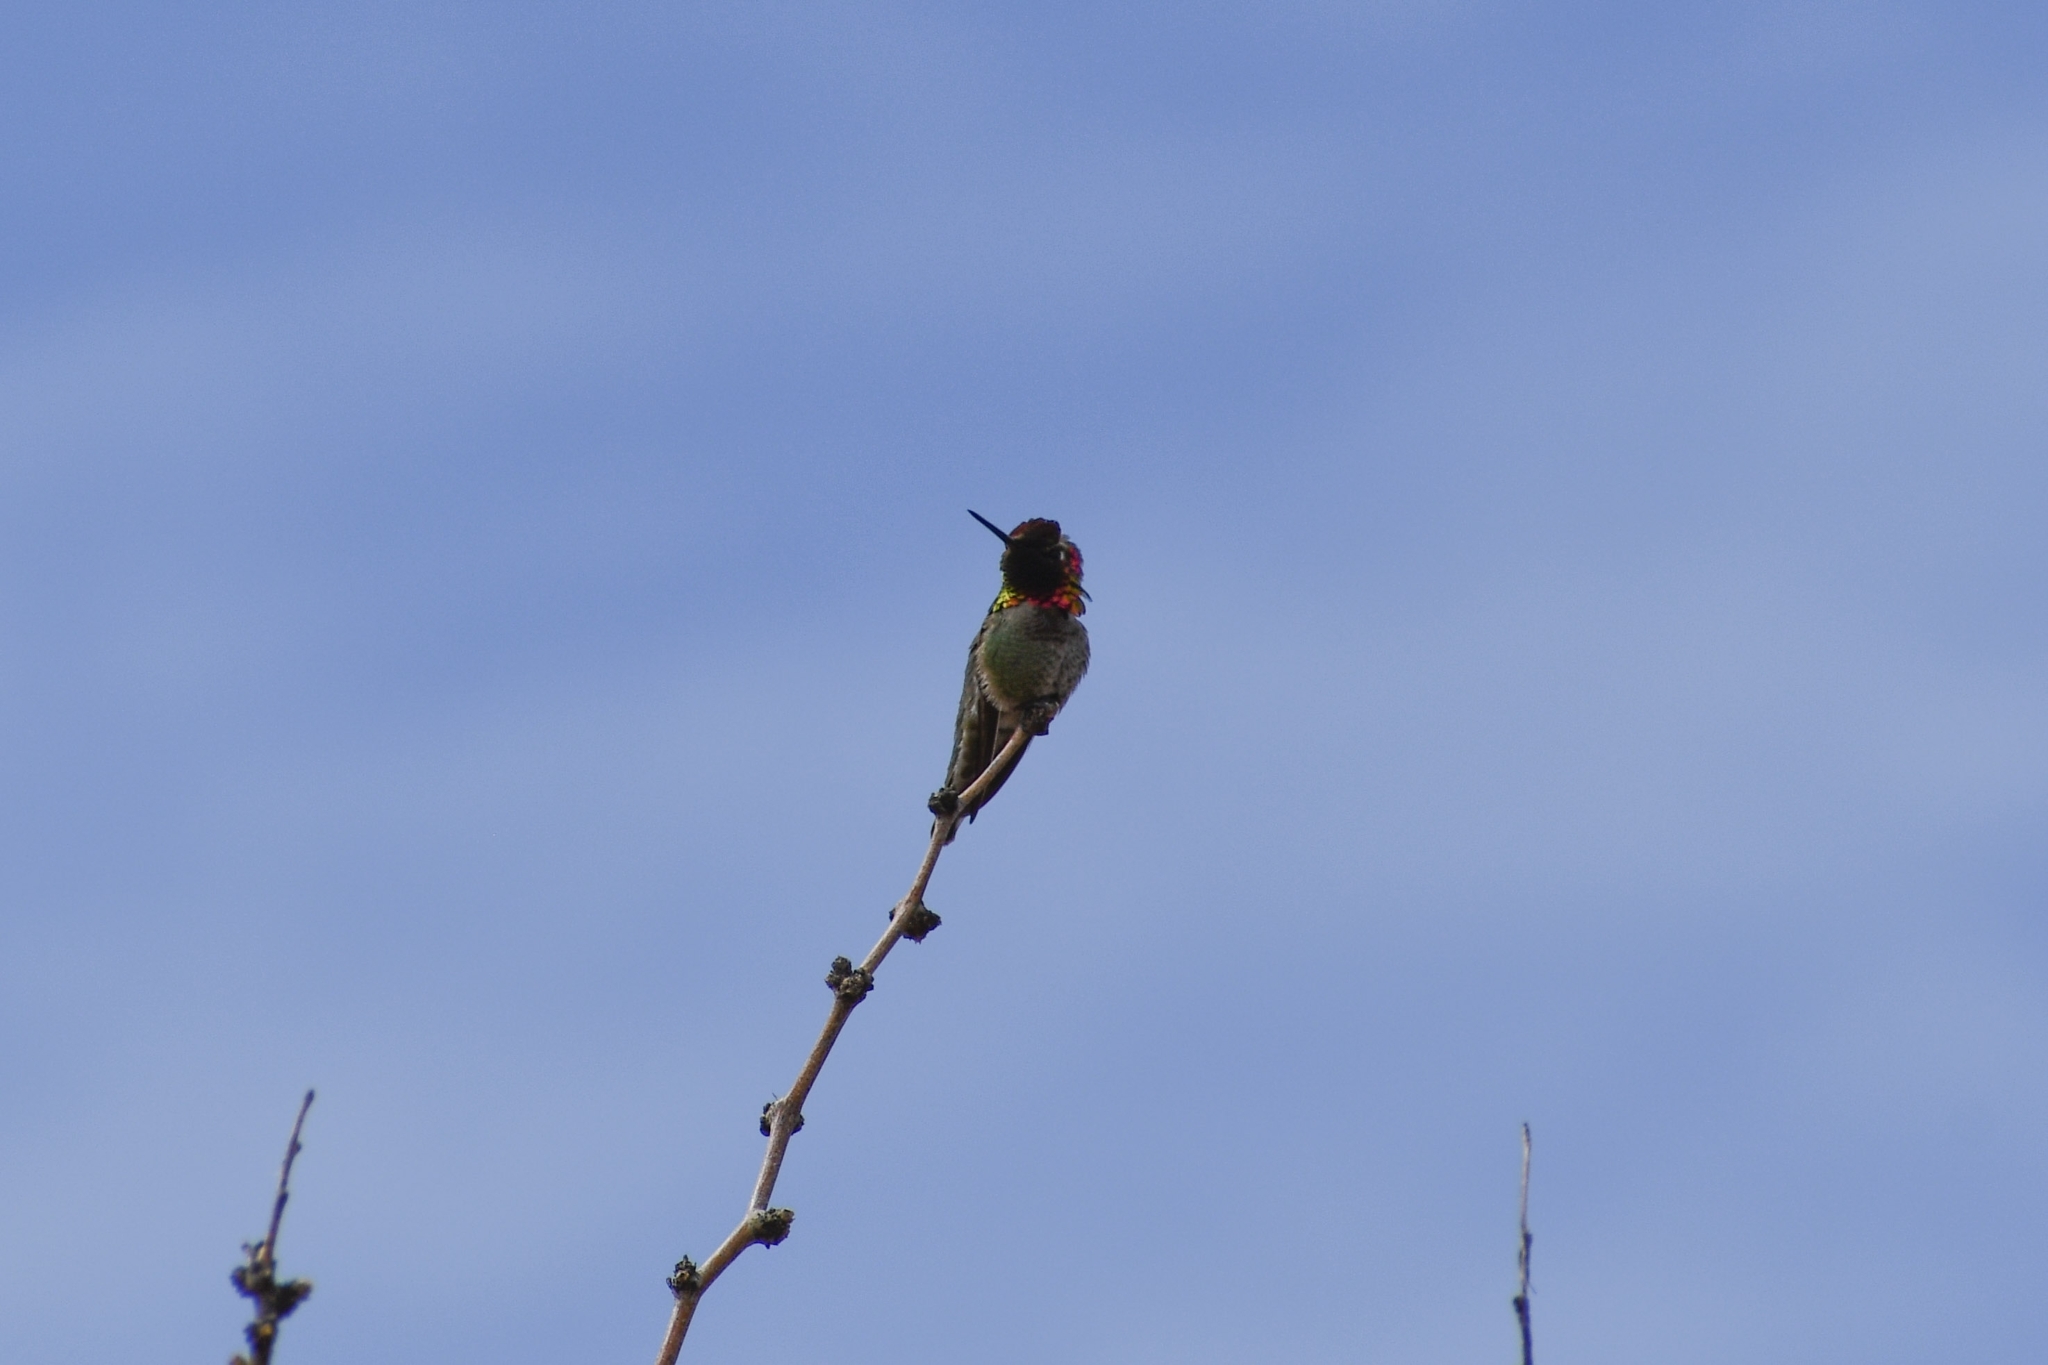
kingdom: Animalia
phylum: Chordata
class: Aves
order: Apodiformes
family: Trochilidae
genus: Calypte
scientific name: Calypte anna
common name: Anna's hummingbird
